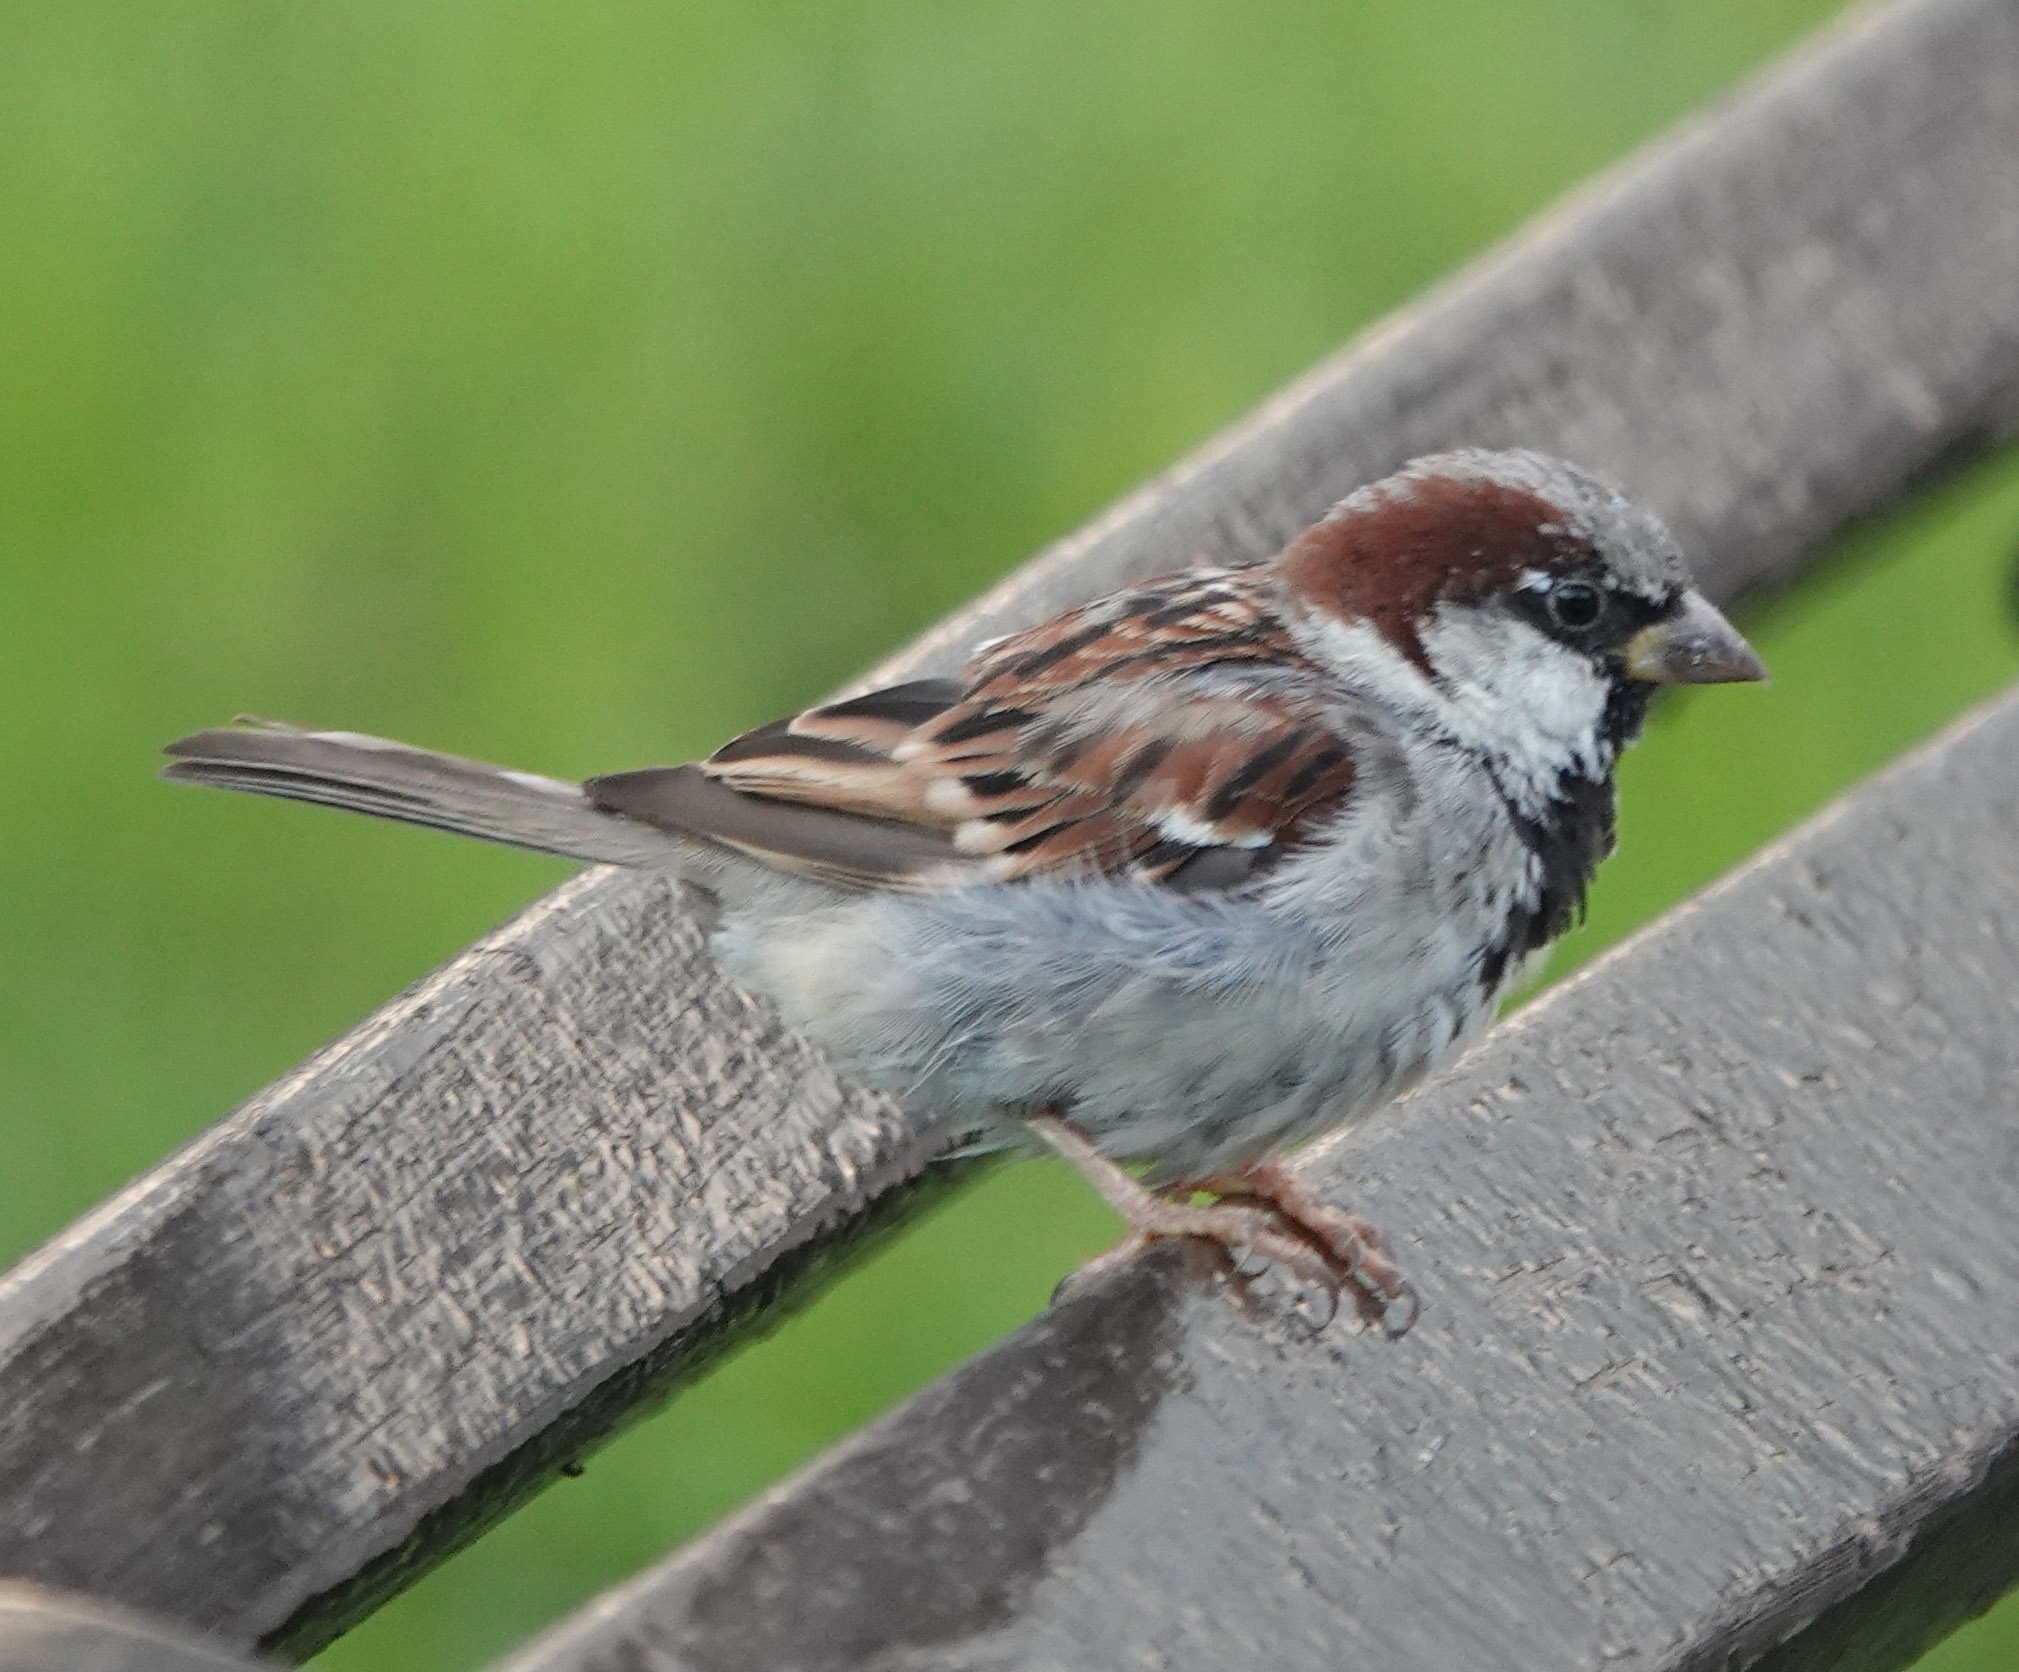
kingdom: Animalia
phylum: Chordata
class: Aves
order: Passeriformes
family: Passeridae
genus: Passer
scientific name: Passer domesticus
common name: House sparrow
